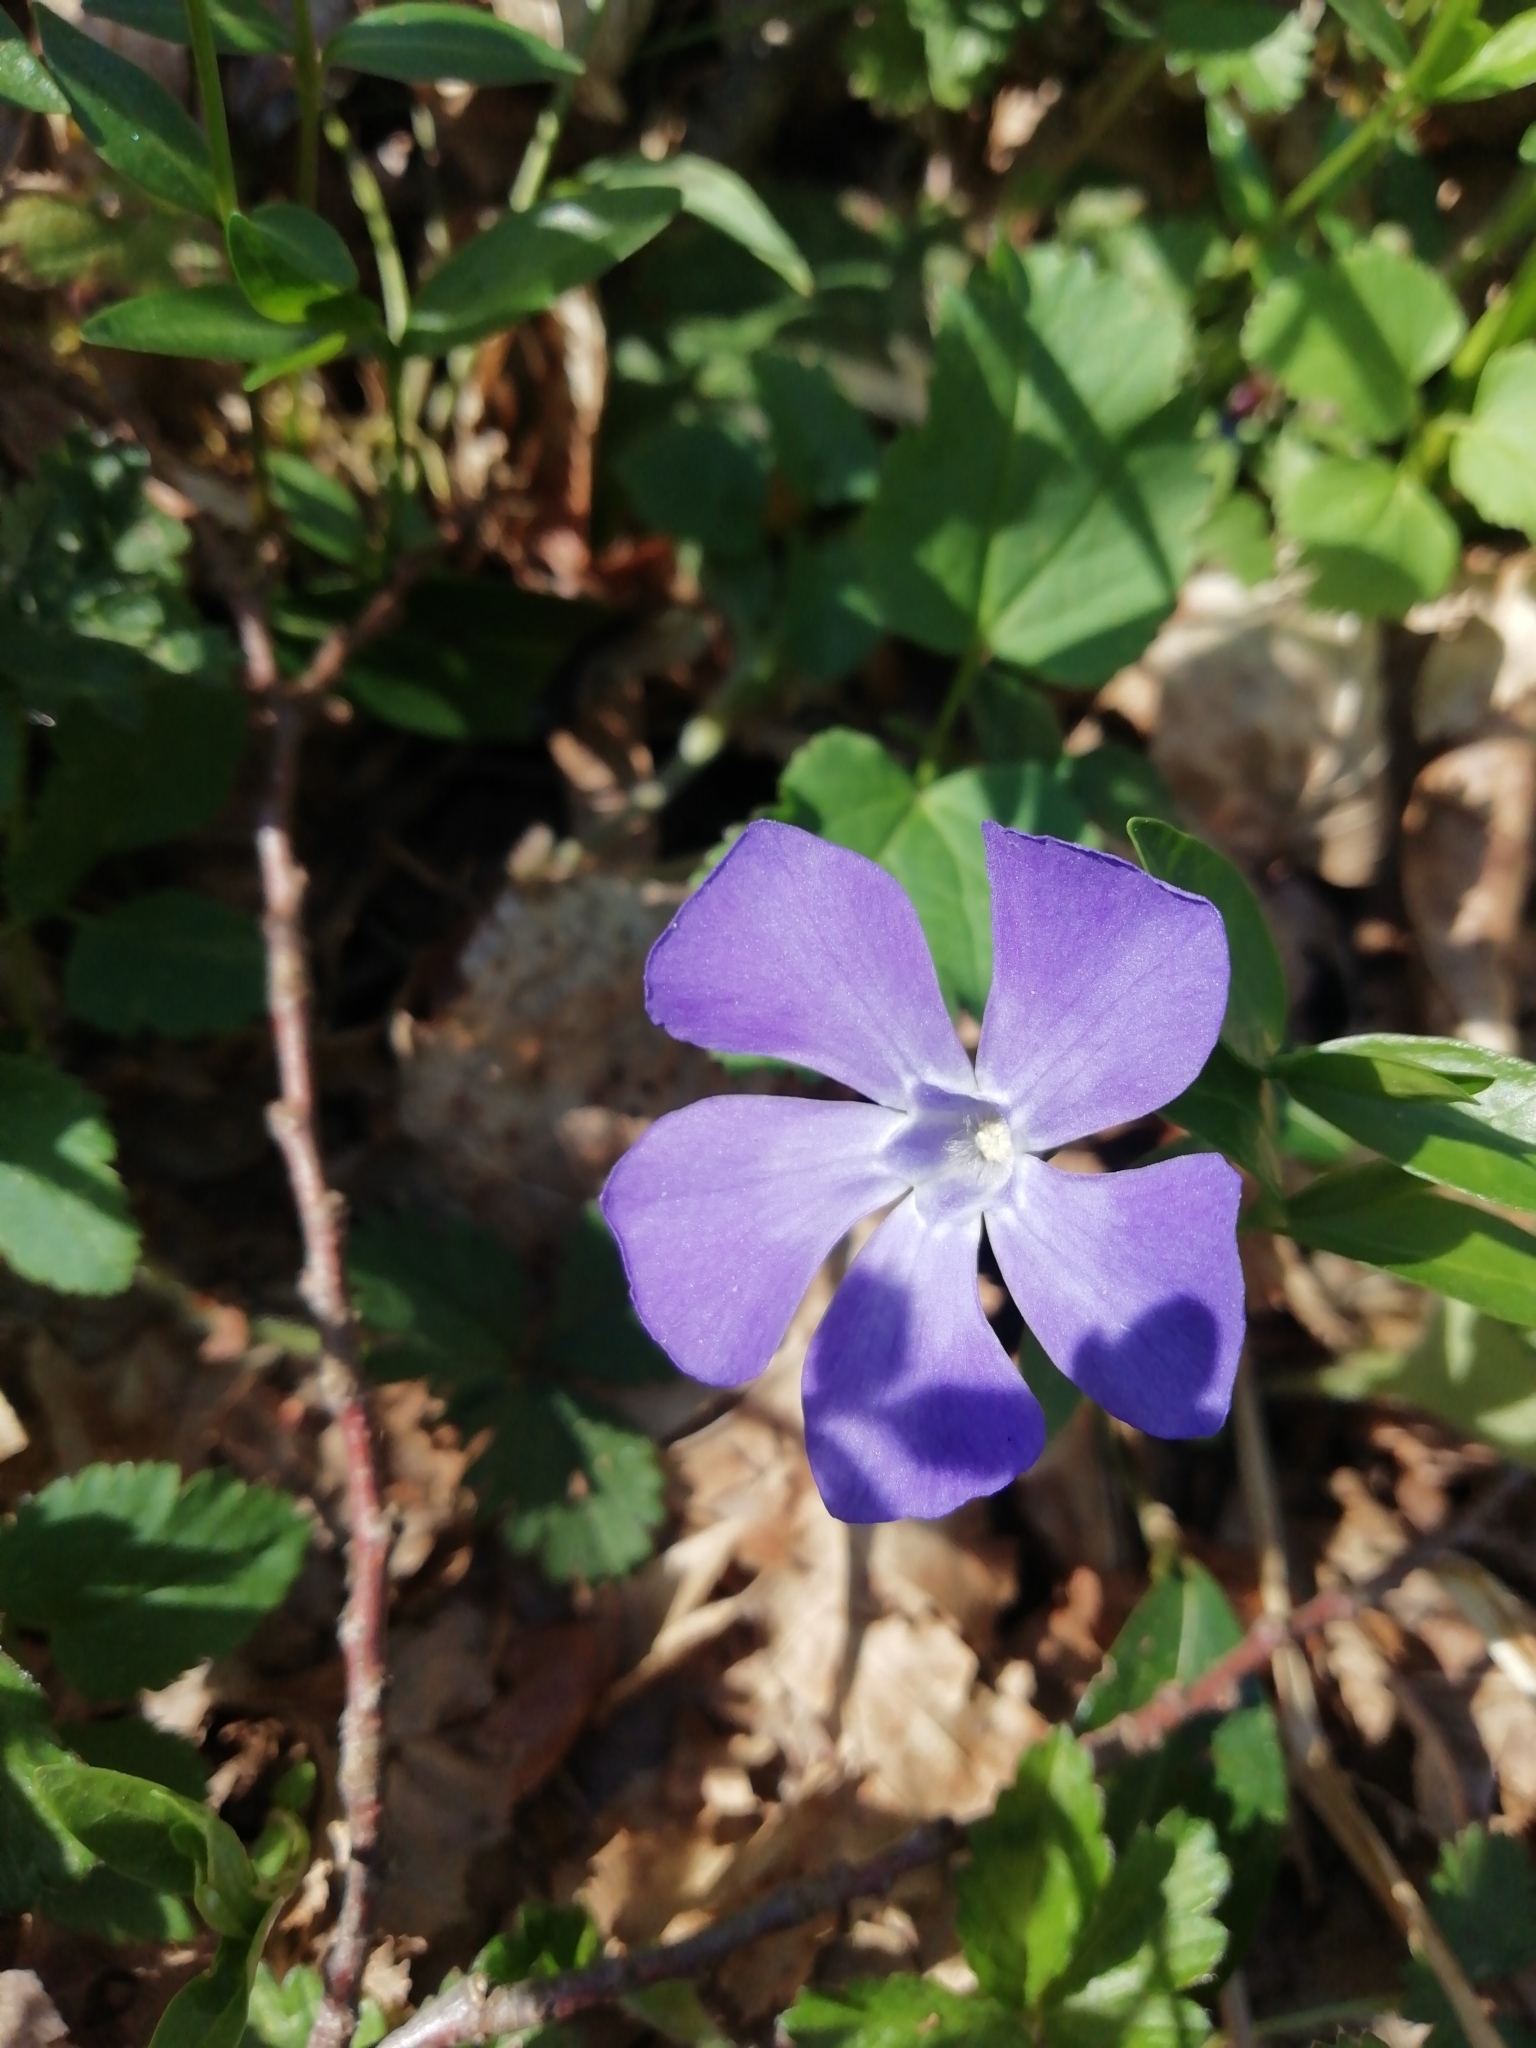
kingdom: Plantae
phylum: Tracheophyta
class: Magnoliopsida
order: Gentianales
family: Apocynaceae
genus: Vinca
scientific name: Vinca minor
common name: Lesser periwinkle
